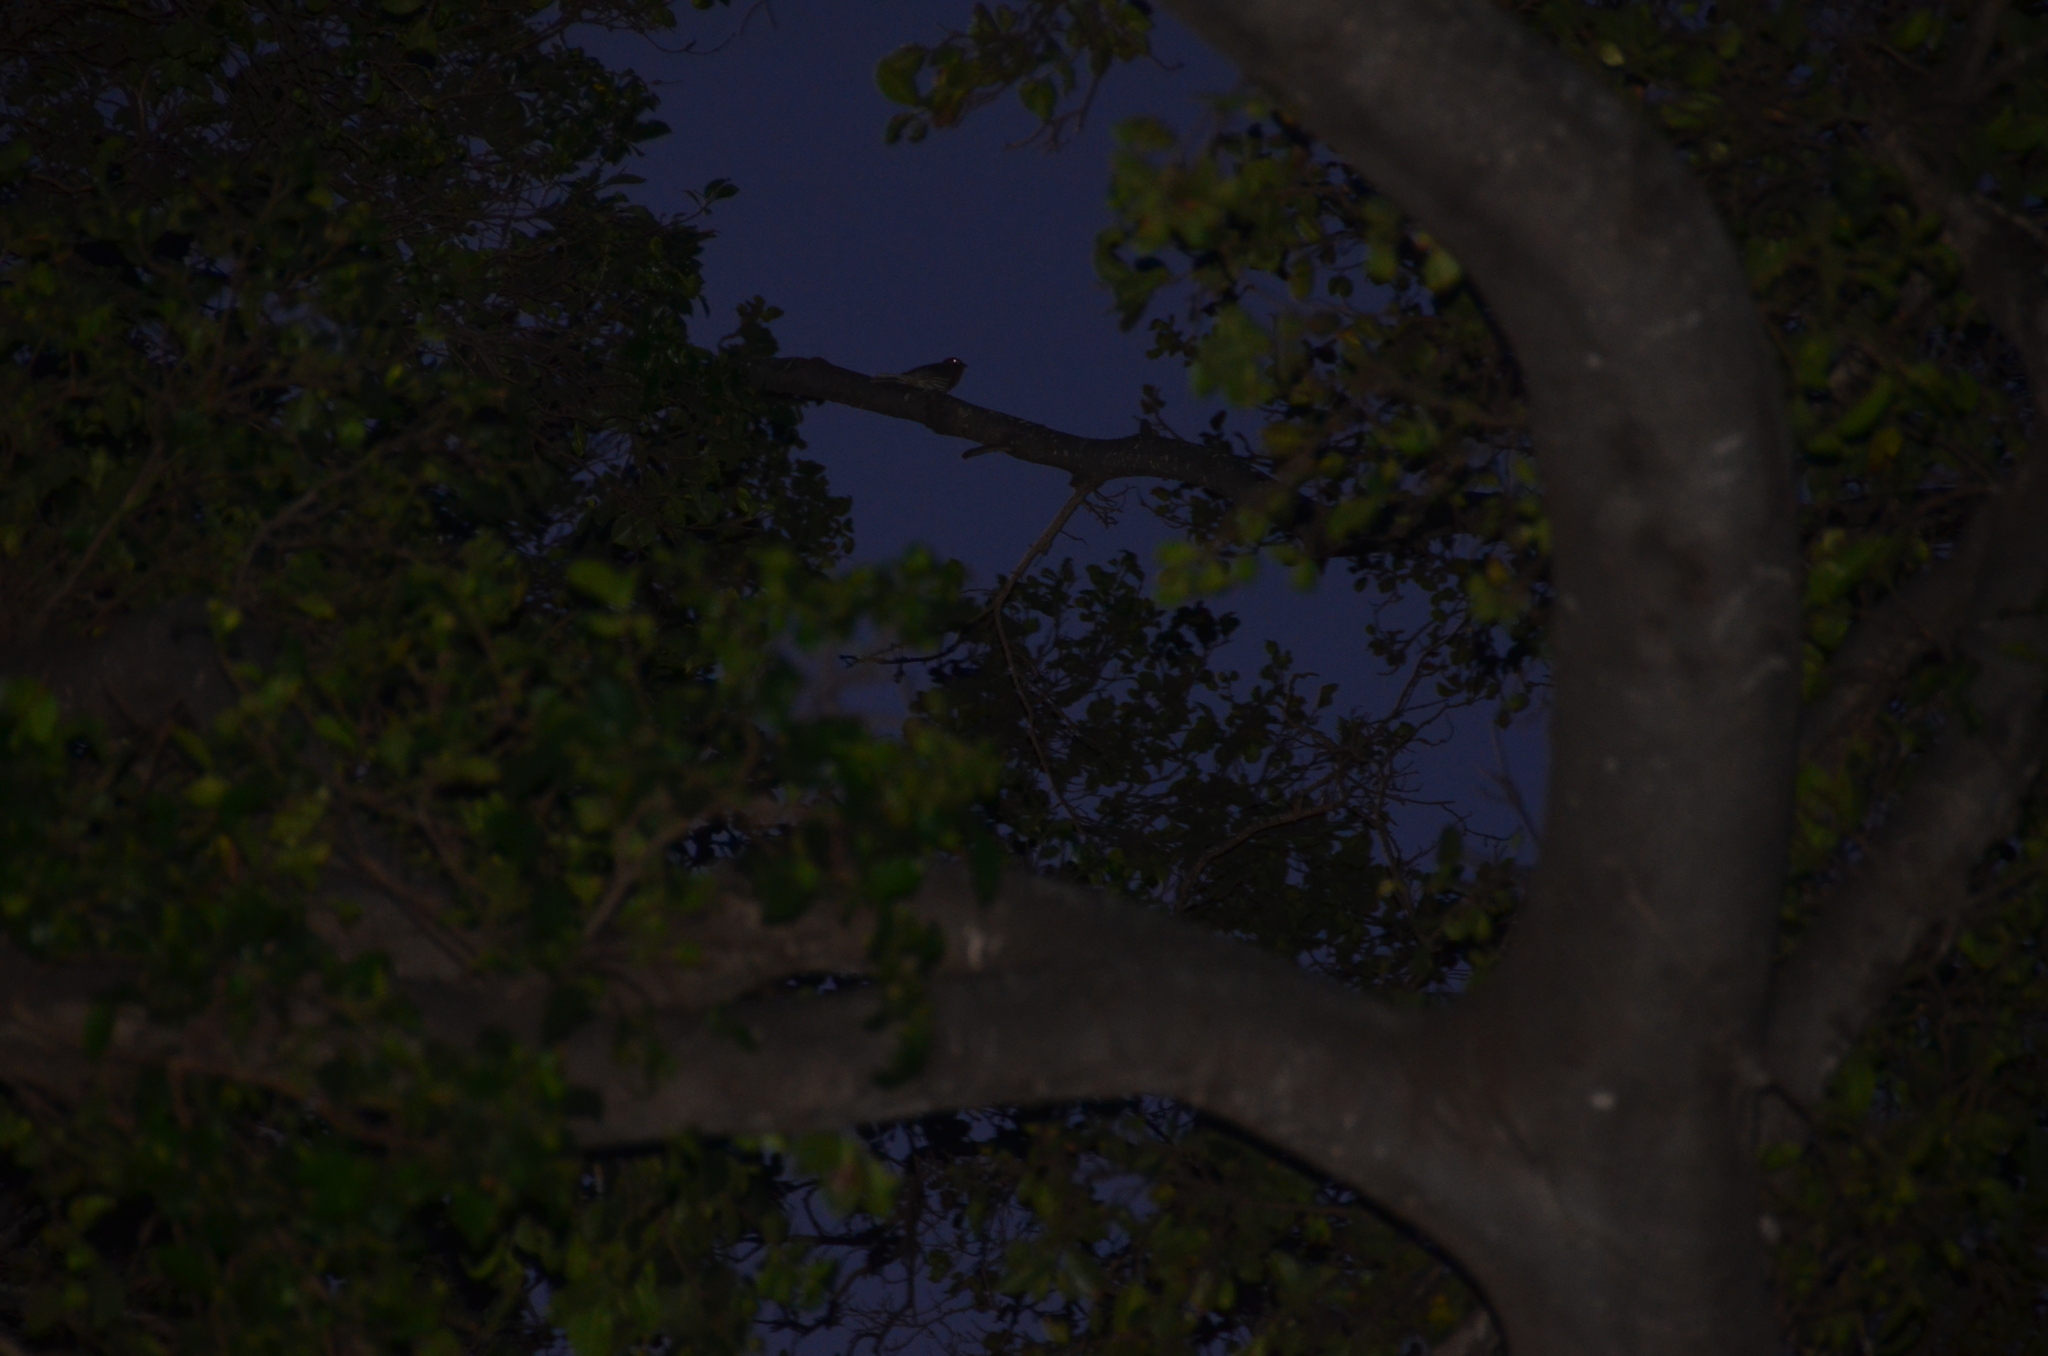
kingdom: Animalia
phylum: Chordata
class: Aves
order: Passeriformes
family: Fringillidae
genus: Haemorhous
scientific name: Haemorhous mexicanus
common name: House finch
